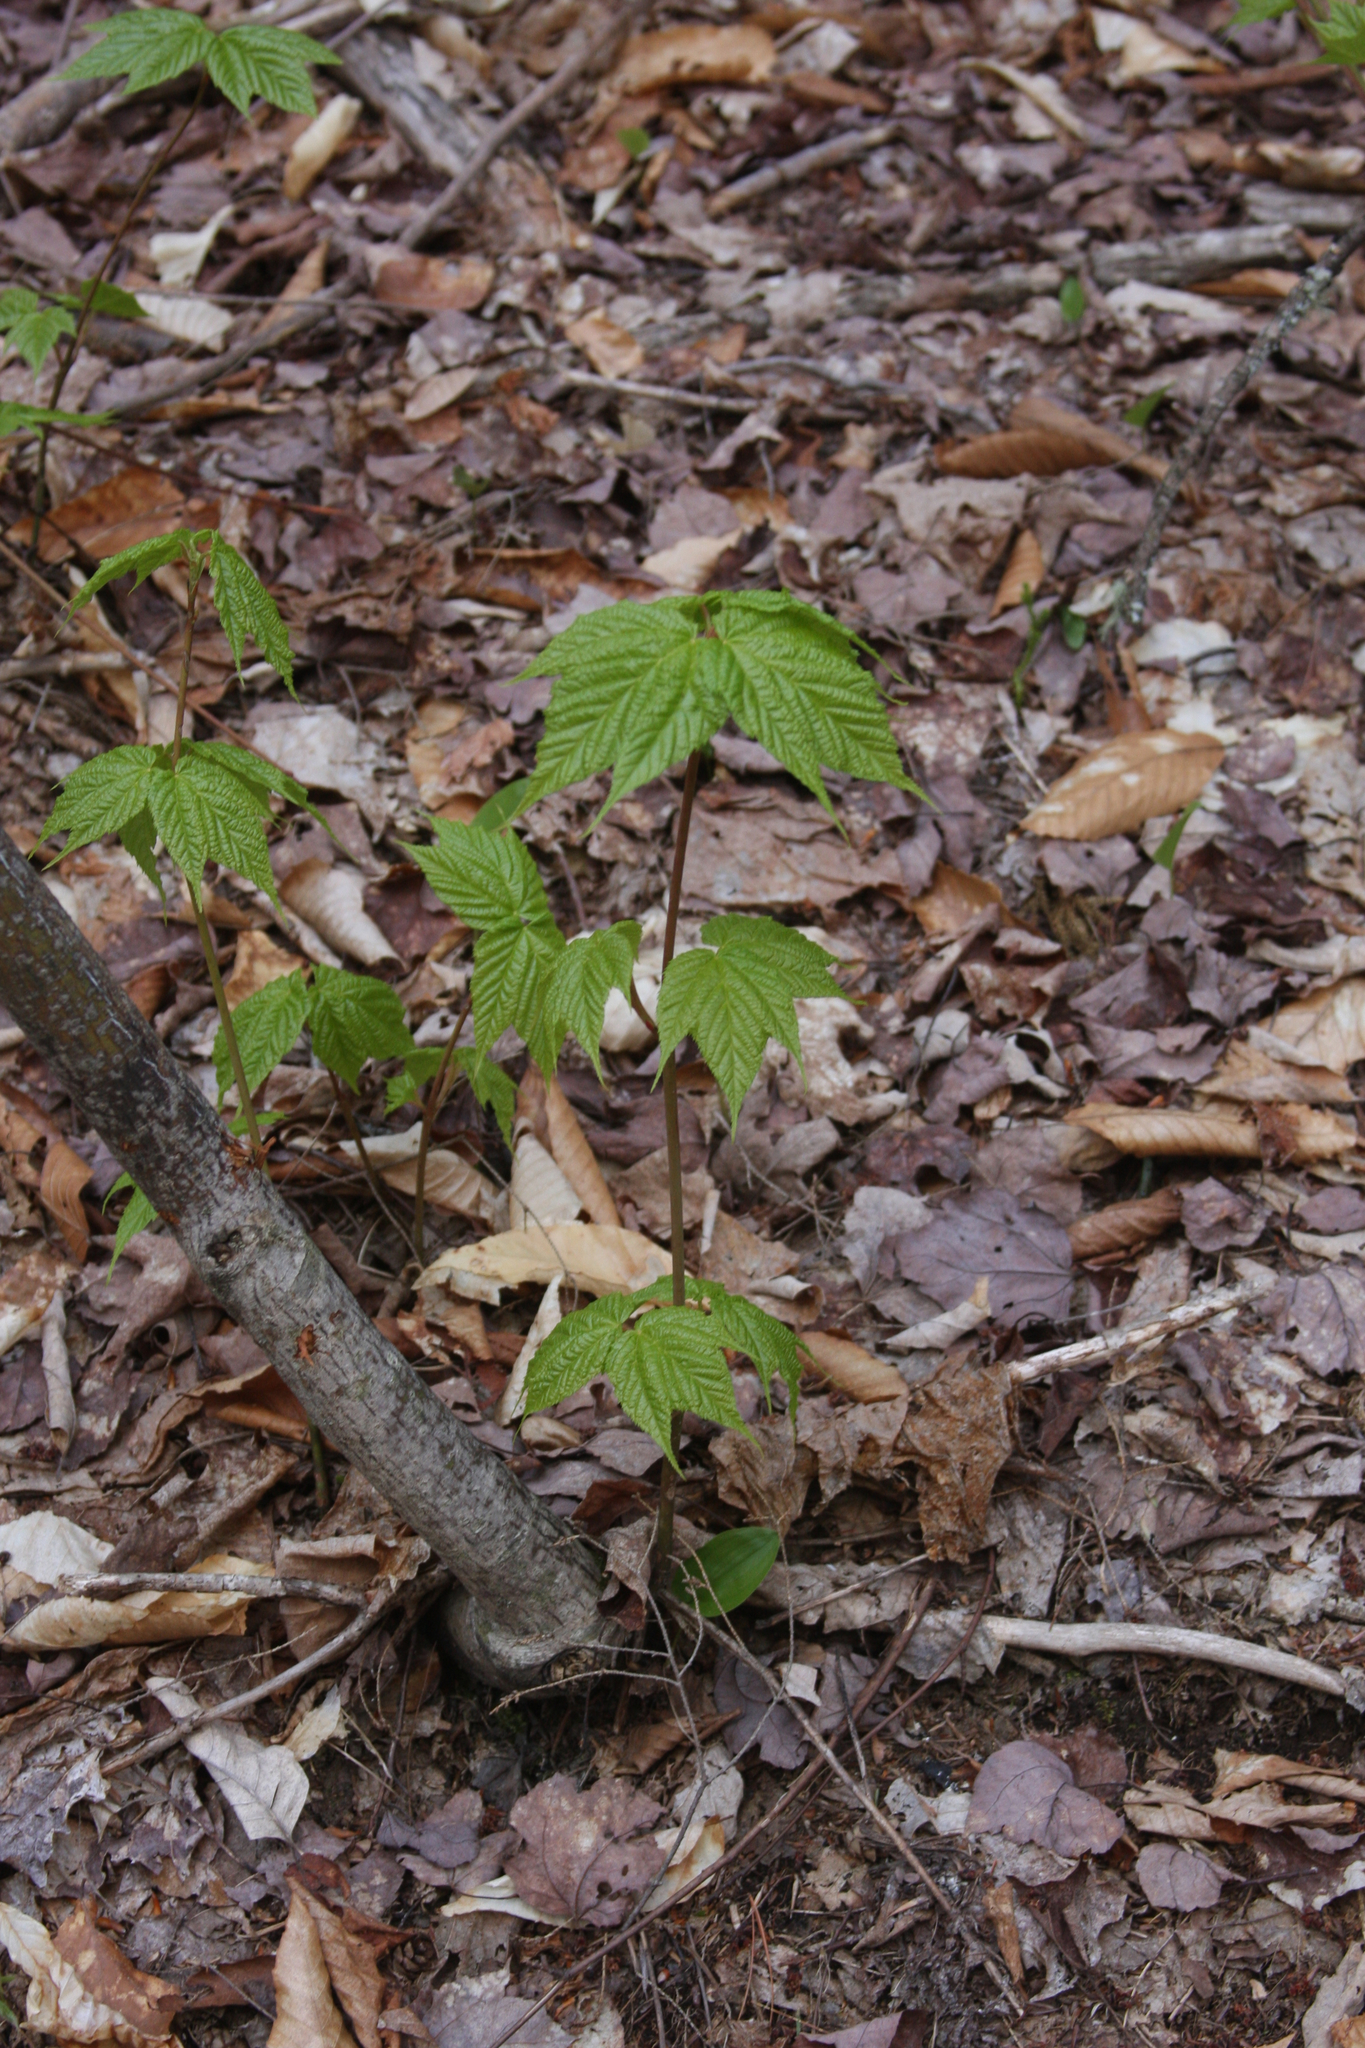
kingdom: Plantae
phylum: Tracheophyta
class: Magnoliopsida
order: Sapindales
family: Sapindaceae
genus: Acer
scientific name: Acer pensylvanicum
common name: Moosewood
